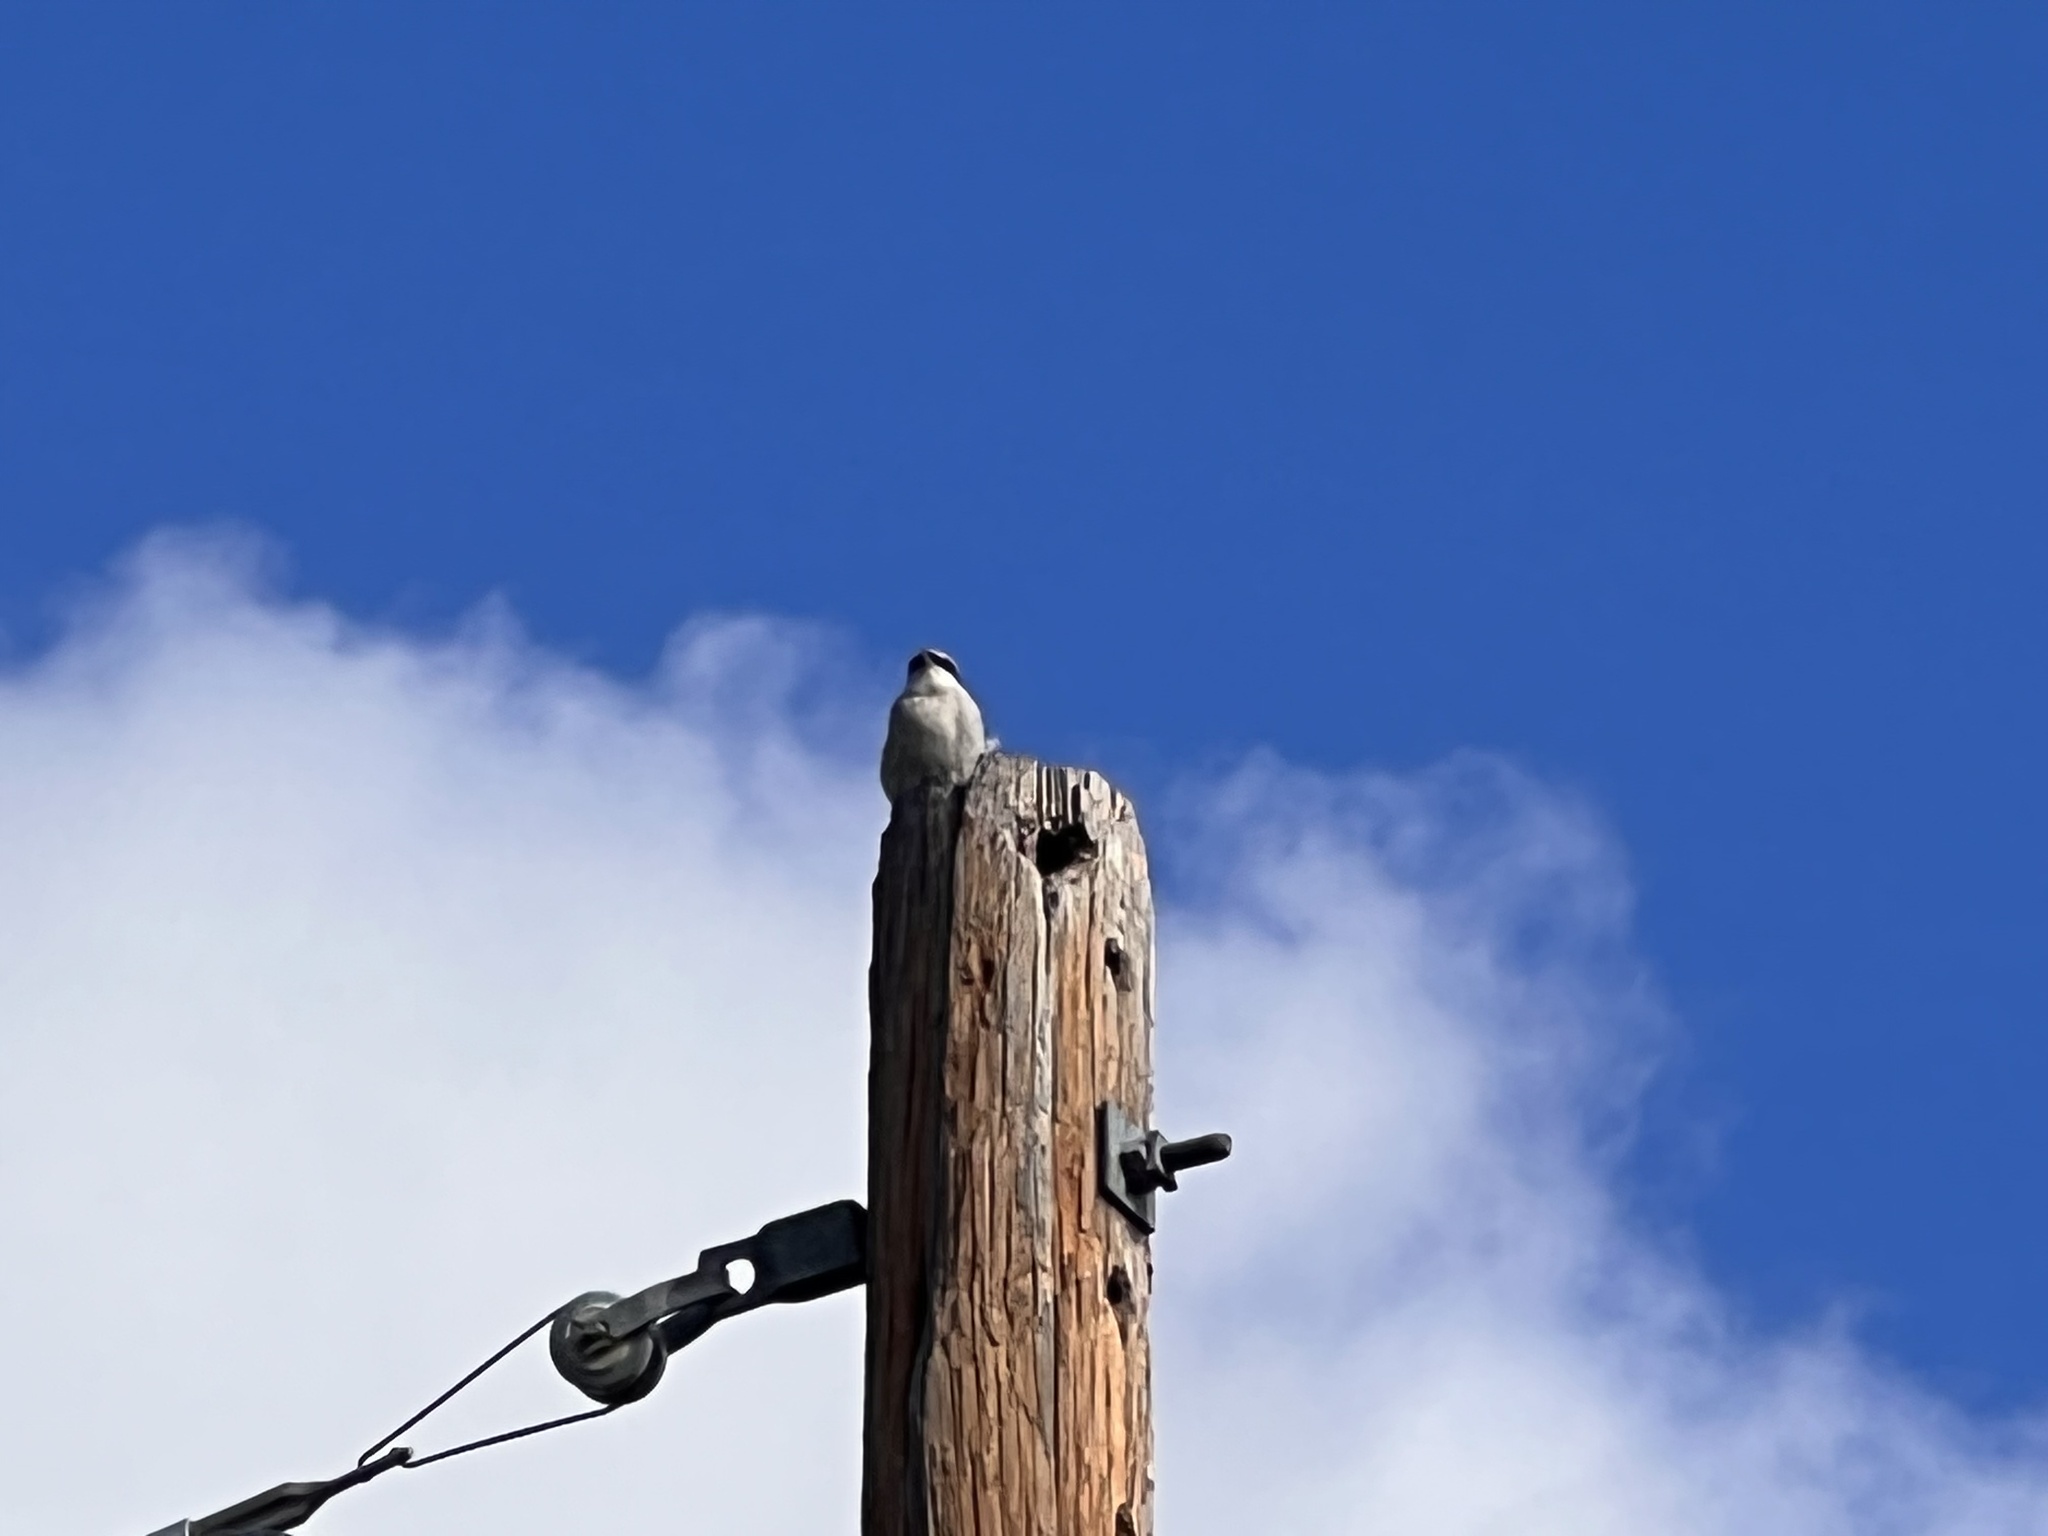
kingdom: Animalia
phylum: Chordata
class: Aves
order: Passeriformes
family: Laniidae
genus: Lanius
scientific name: Lanius ludovicianus
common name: Loggerhead shrike
